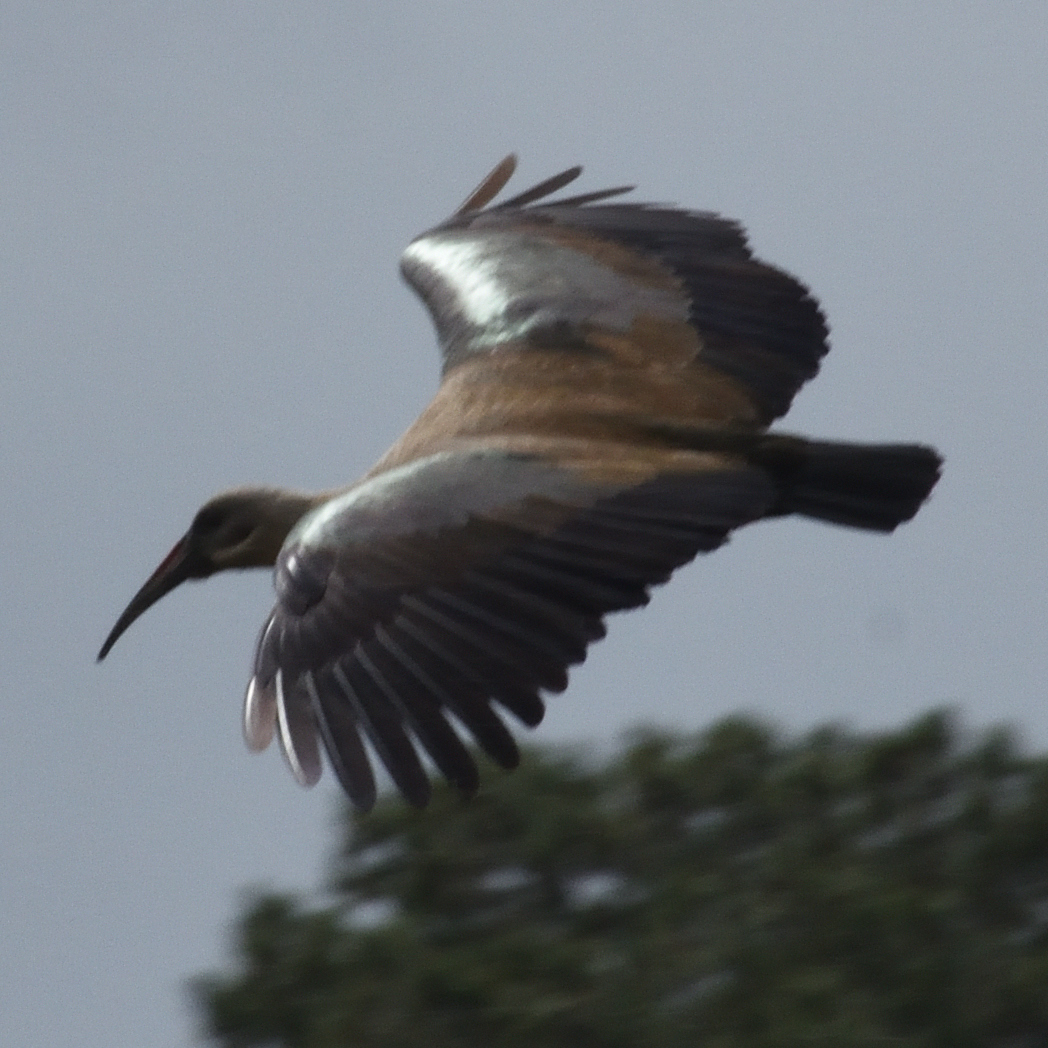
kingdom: Animalia
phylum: Chordata
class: Aves
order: Pelecaniformes
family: Threskiornithidae
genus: Bostrychia
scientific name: Bostrychia hagedash
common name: Hadada ibis
